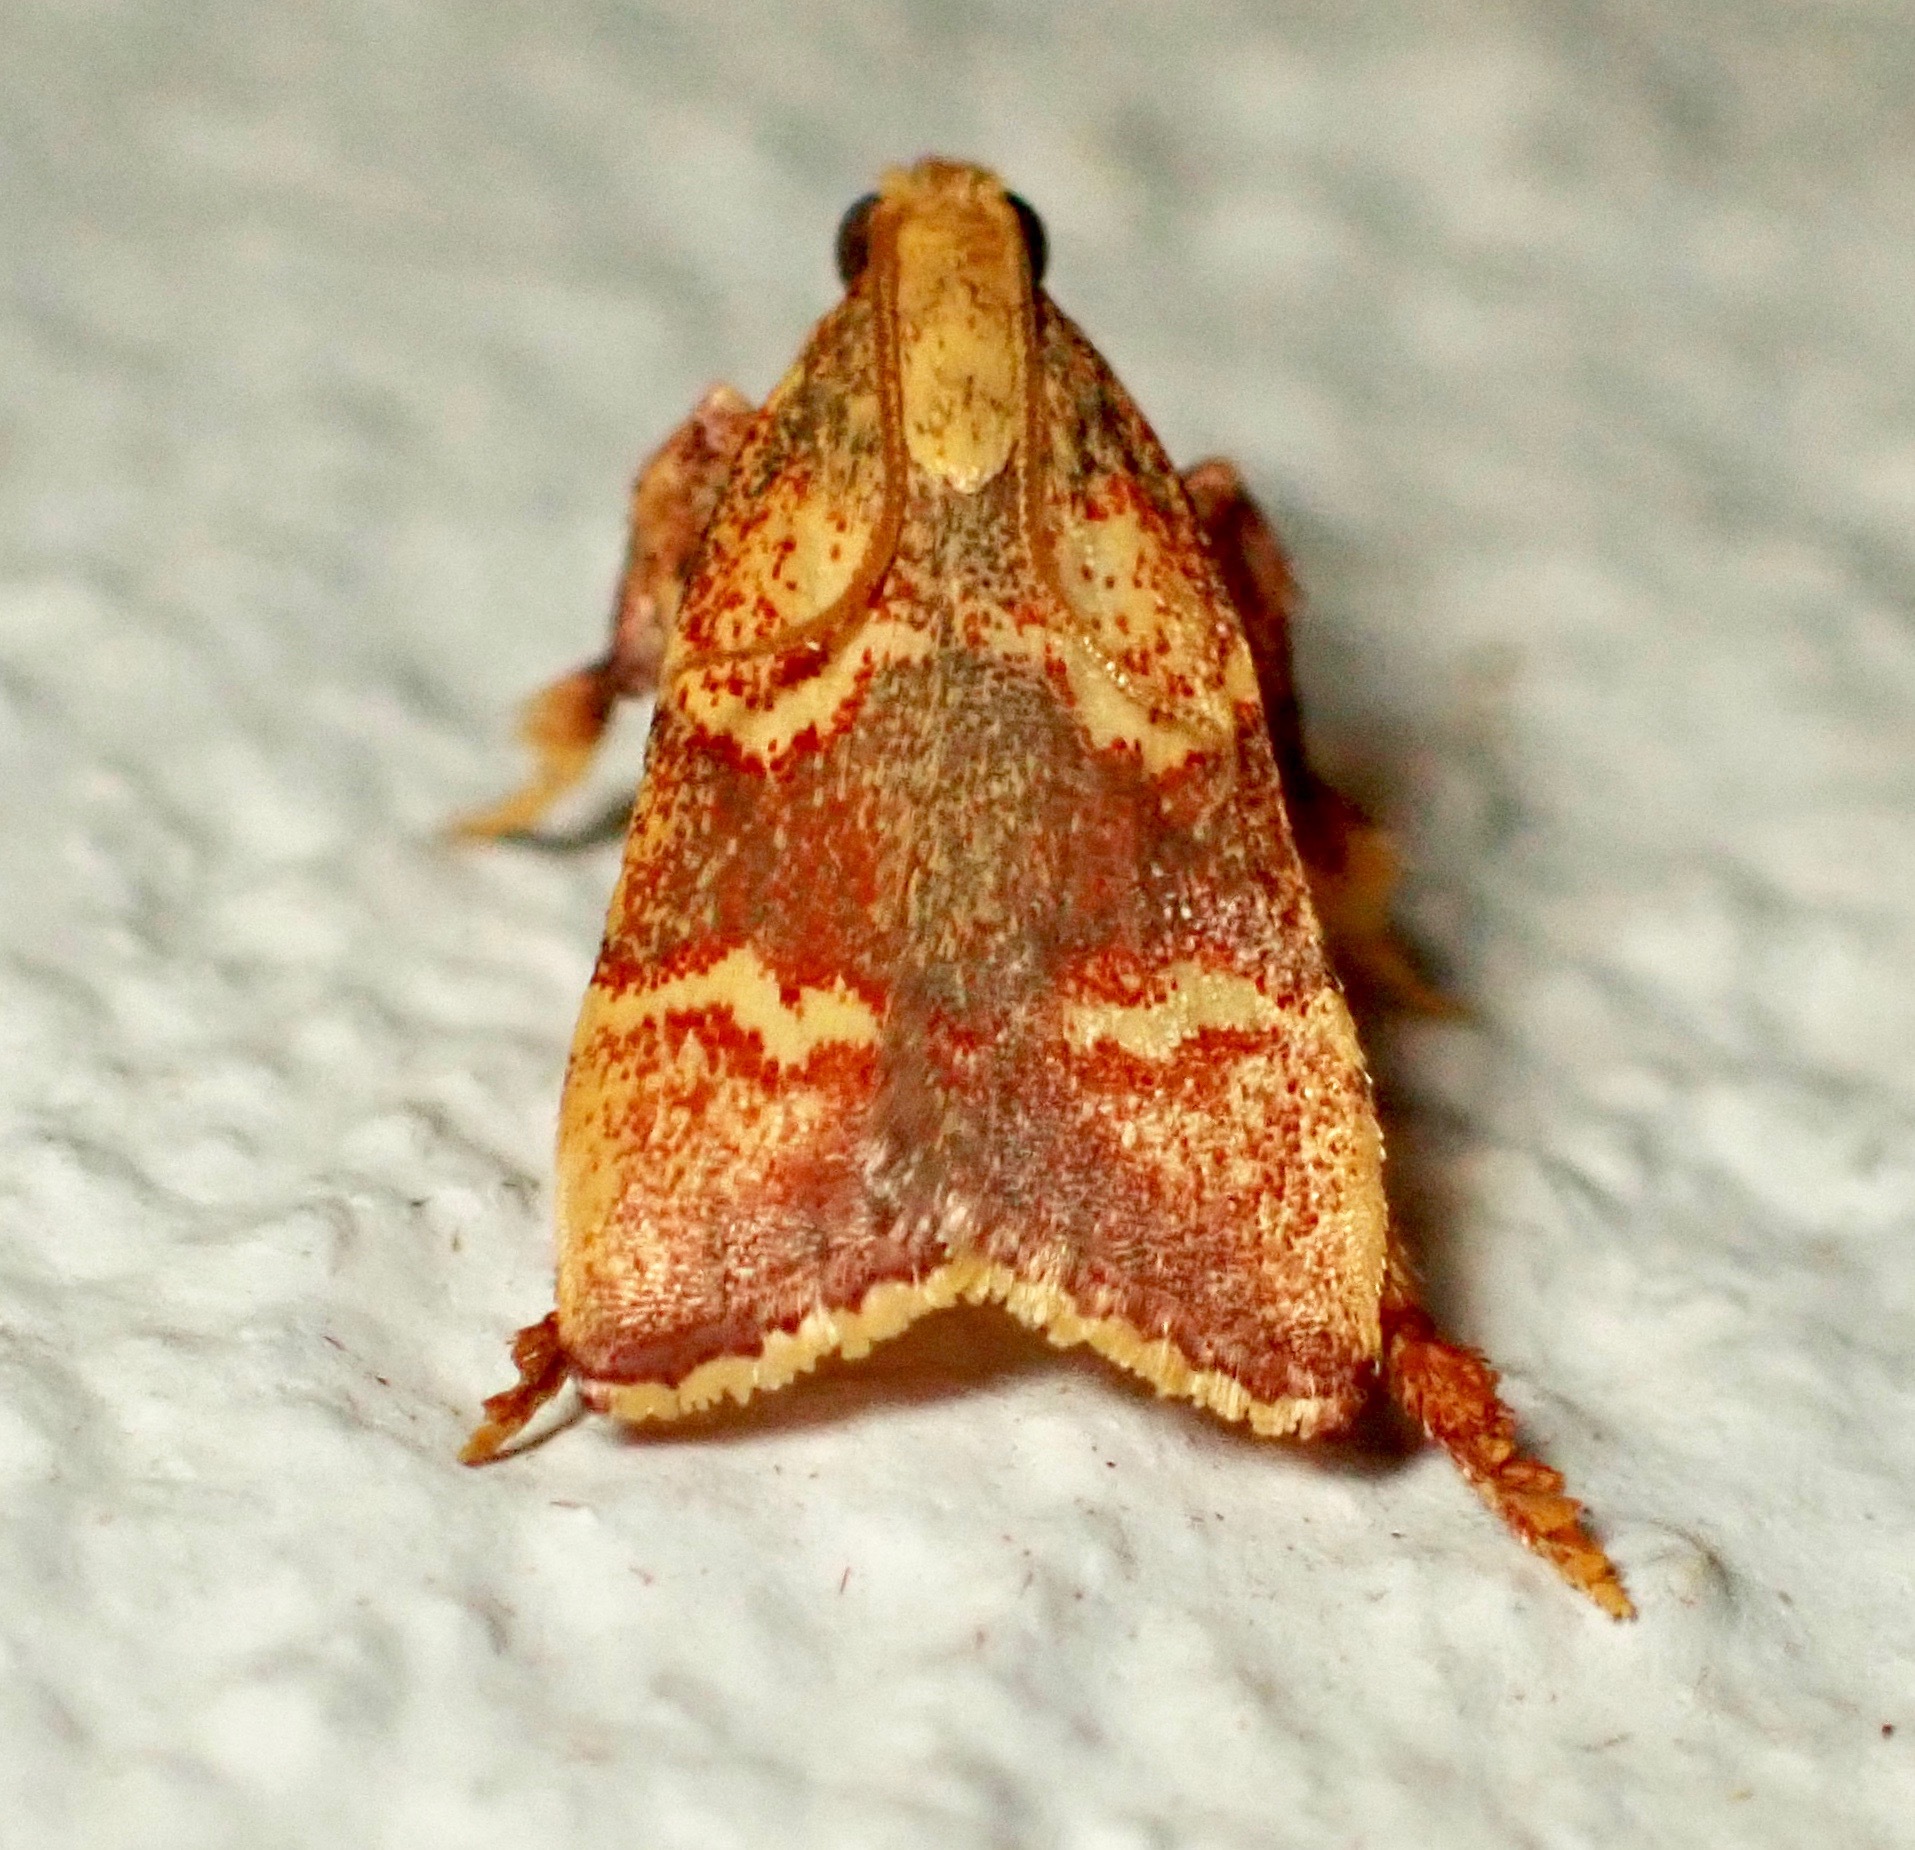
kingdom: Animalia
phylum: Arthropoda
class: Insecta
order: Lepidoptera
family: Pyralidae
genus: Parachma
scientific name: Parachma lutealis
